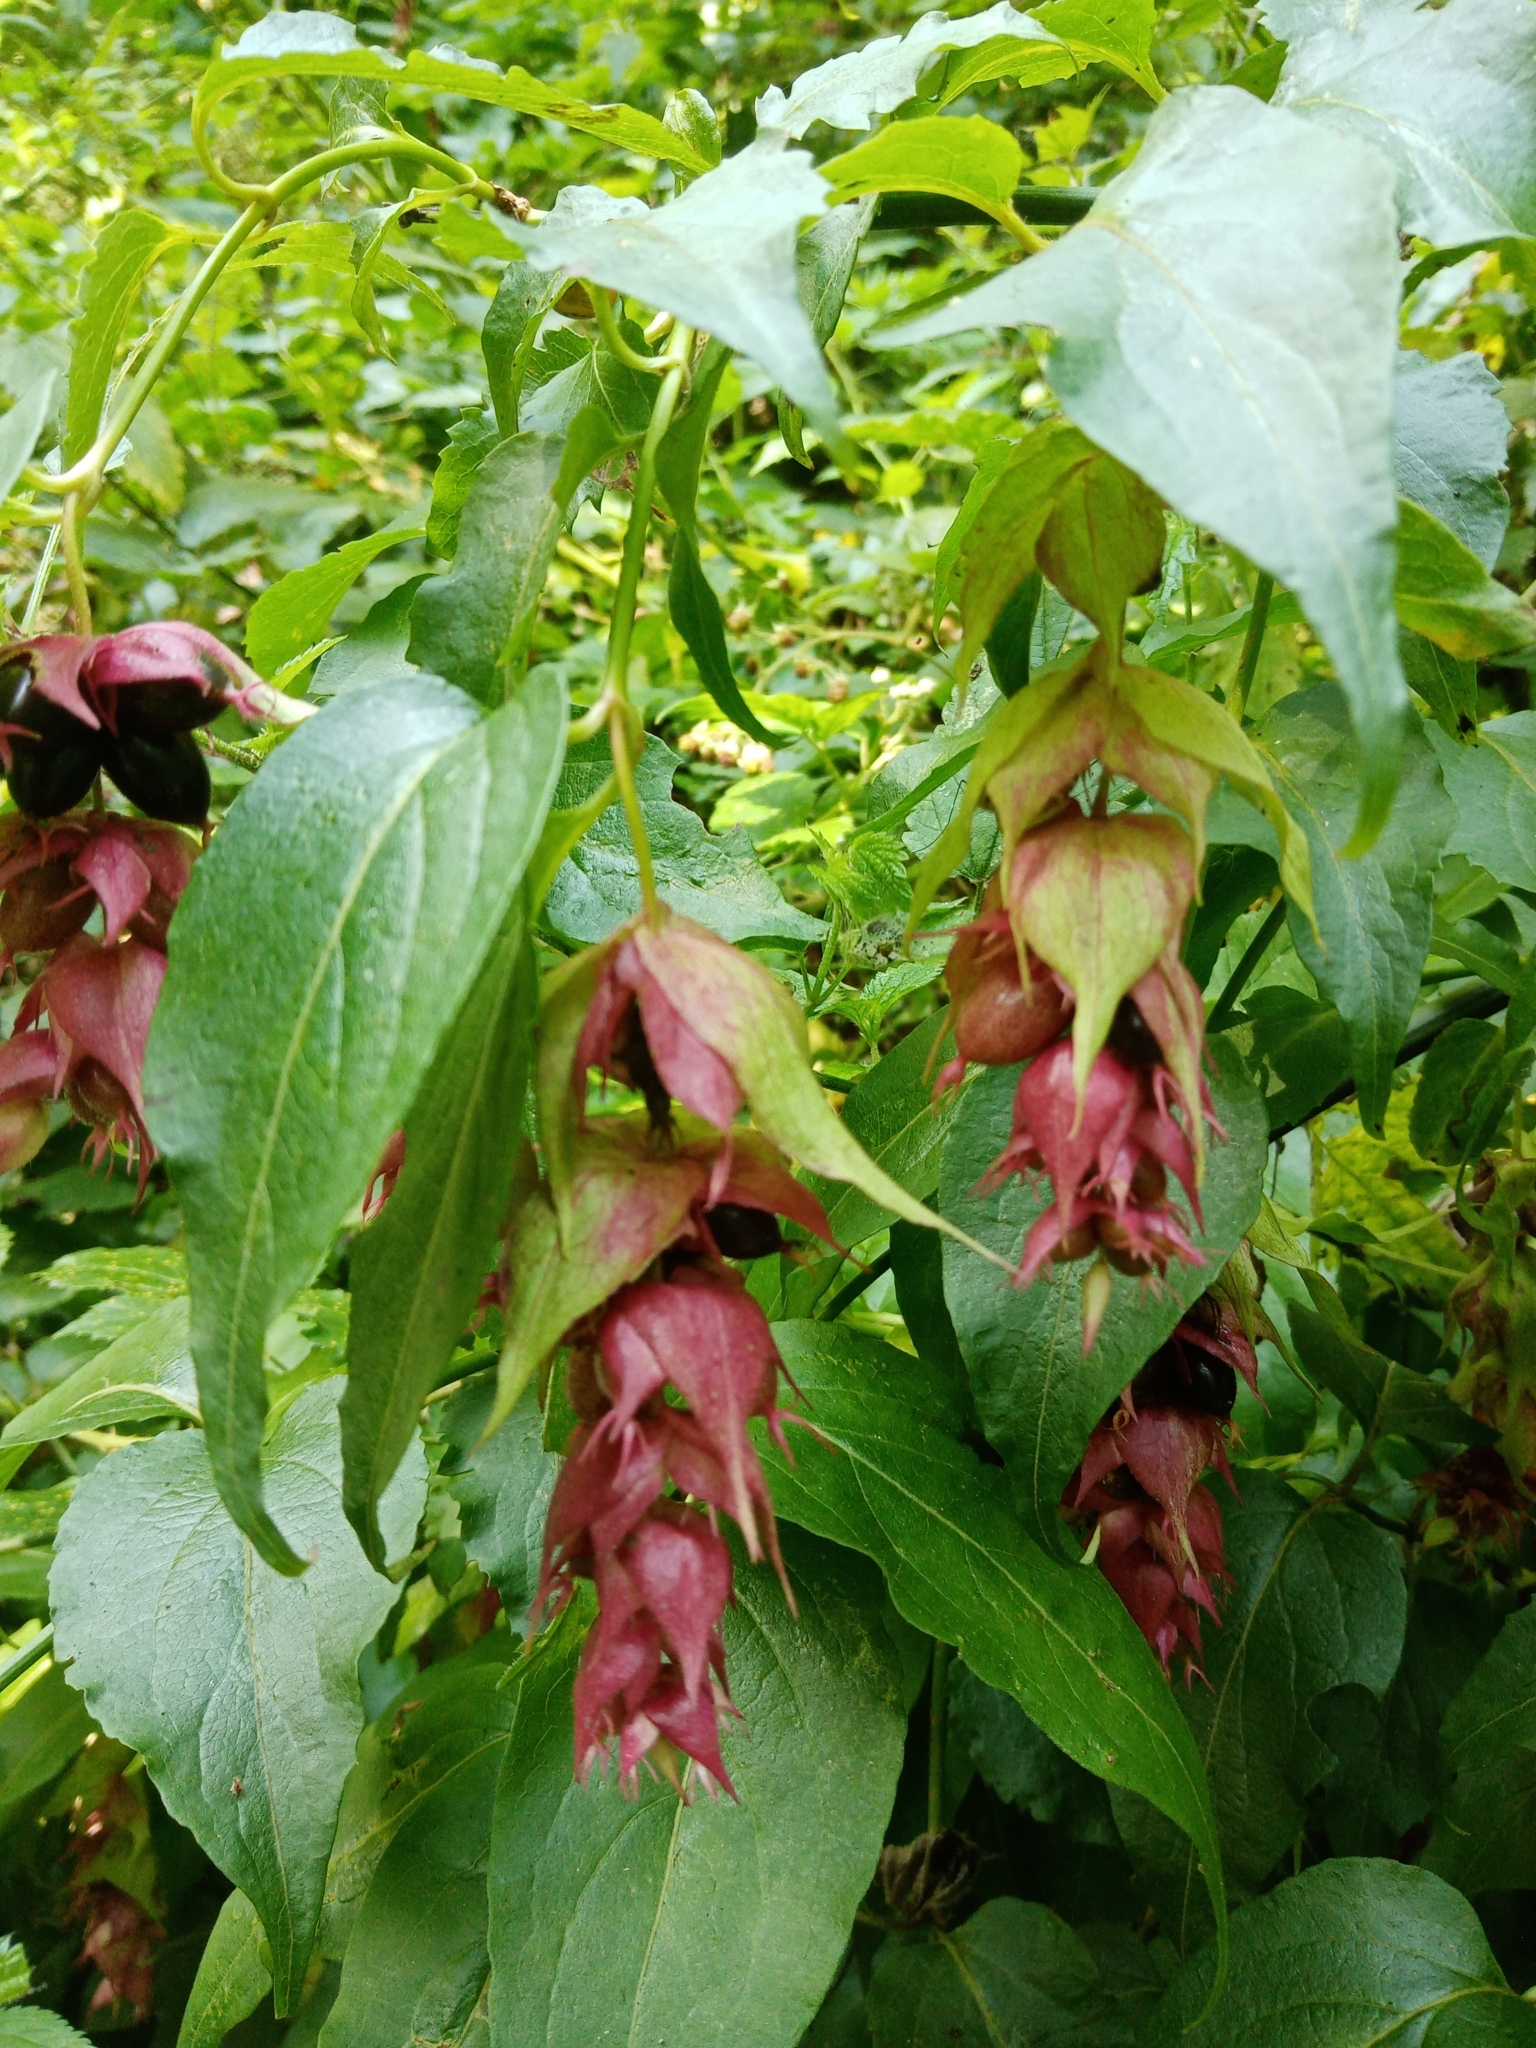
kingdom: Plantae
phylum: Tracheophyta
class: Magnoliopsida
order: Dipsacales
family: Caprifoliaceae
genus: Leycesteria
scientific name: Leycesteria formosa
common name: Himalayan honeysuckle
